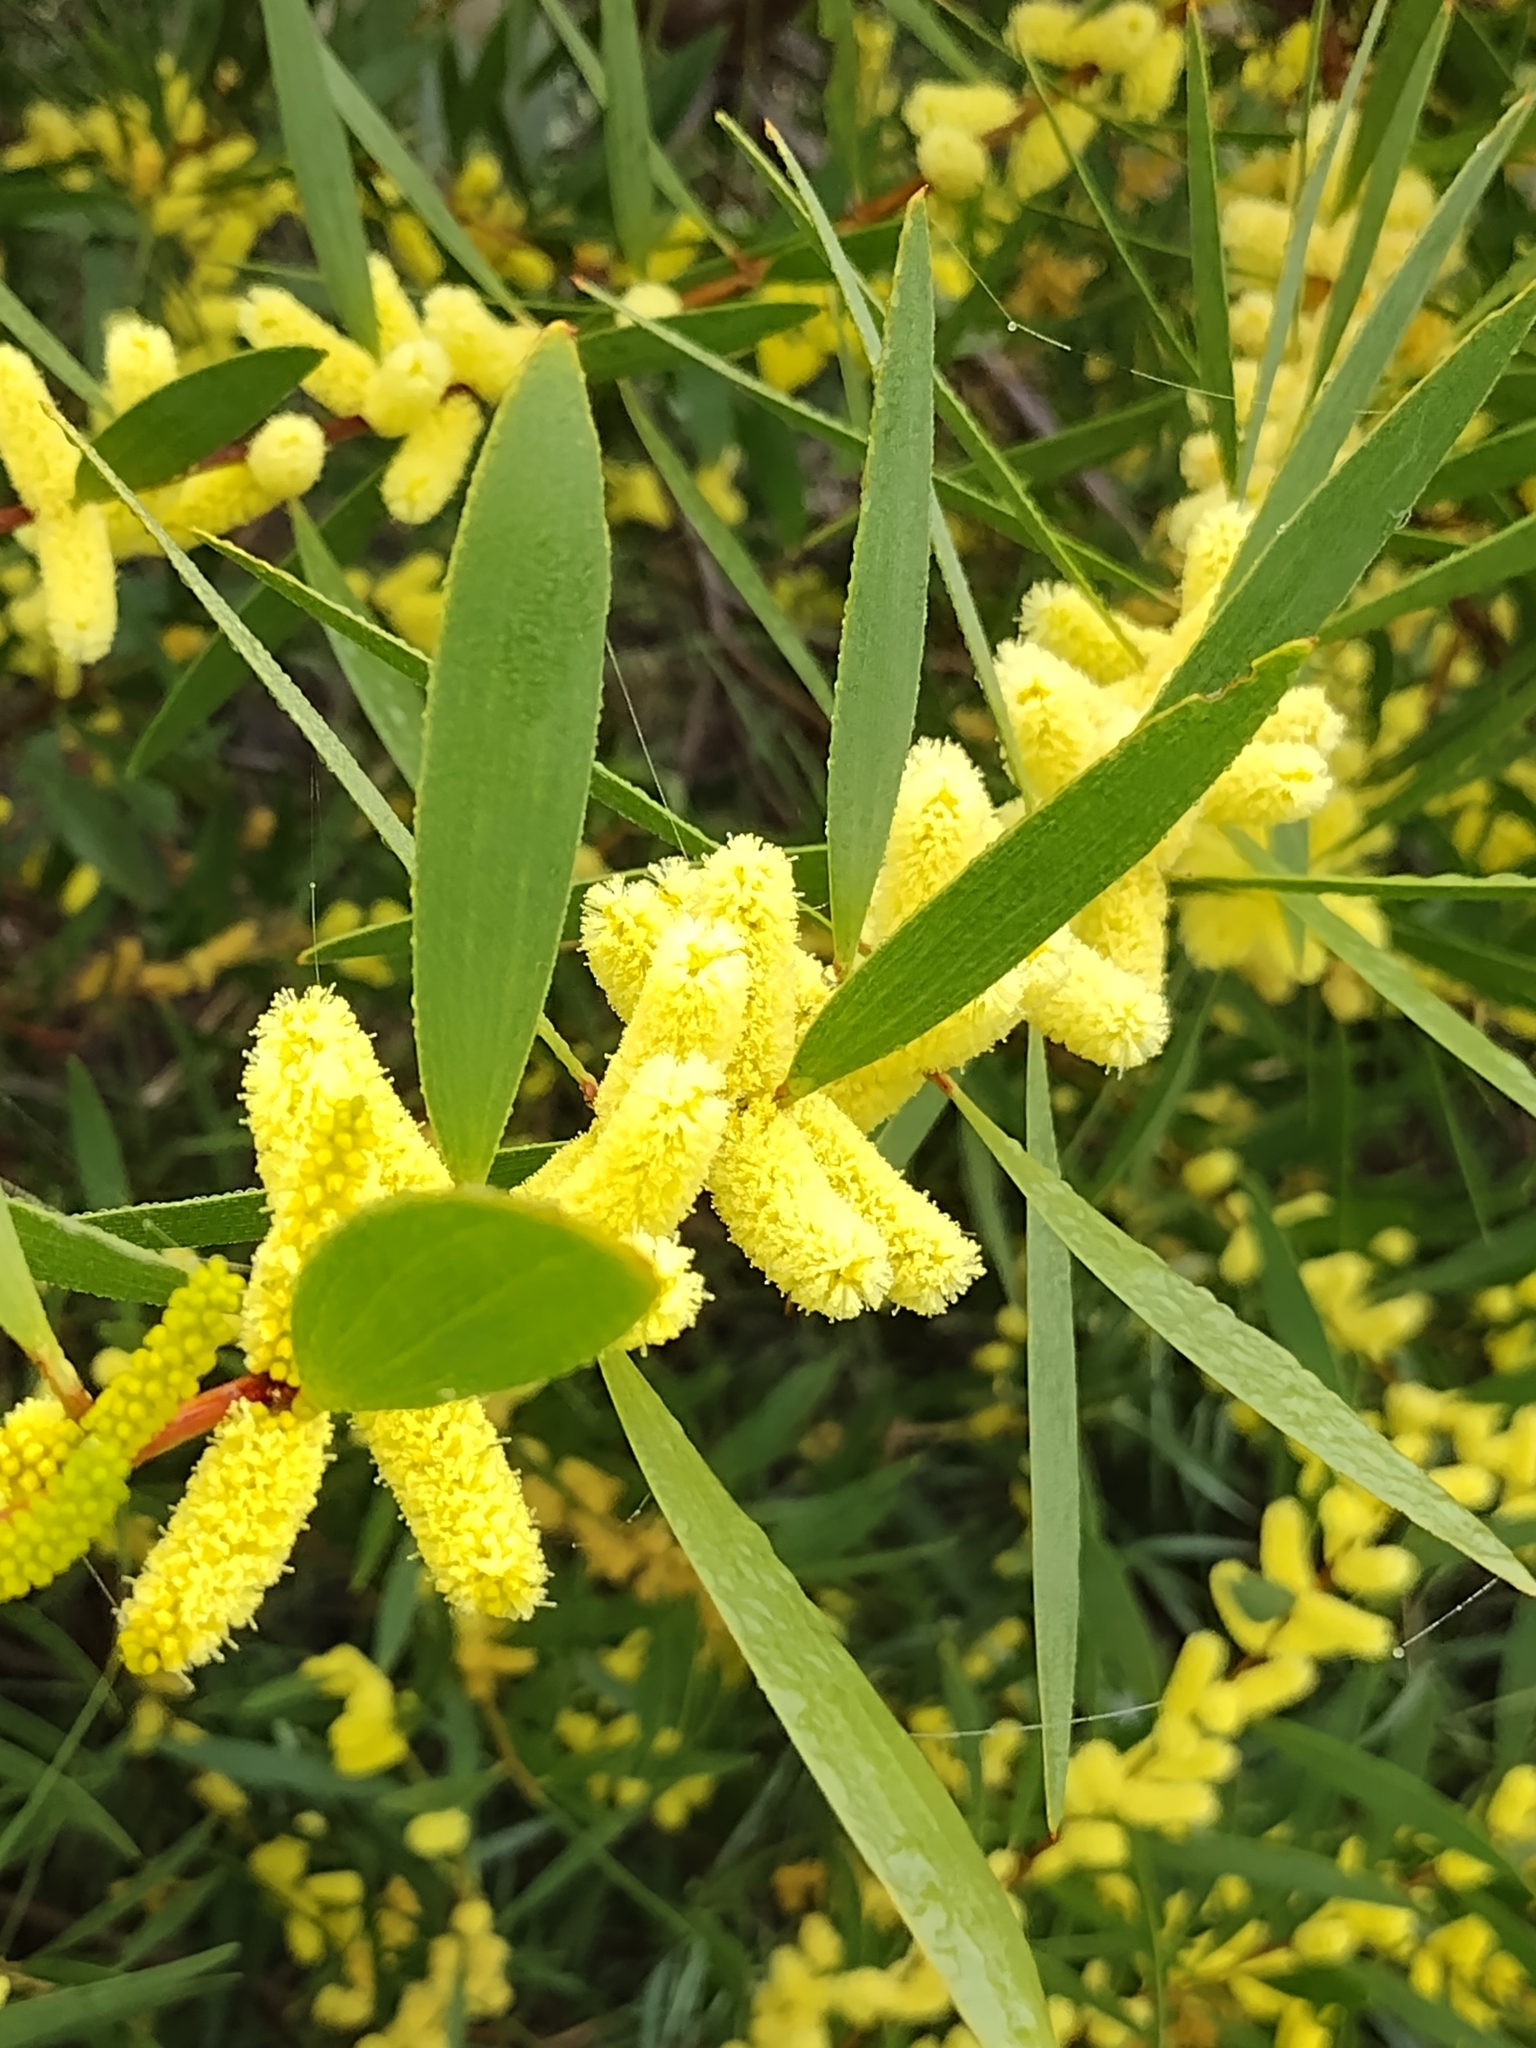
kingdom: Plantae
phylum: Tracheophyta
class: Magnoliopsida
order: Fabales
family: Fabaceae
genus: Acacia
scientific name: Acacia longifolia
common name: Sydney golden wattle
